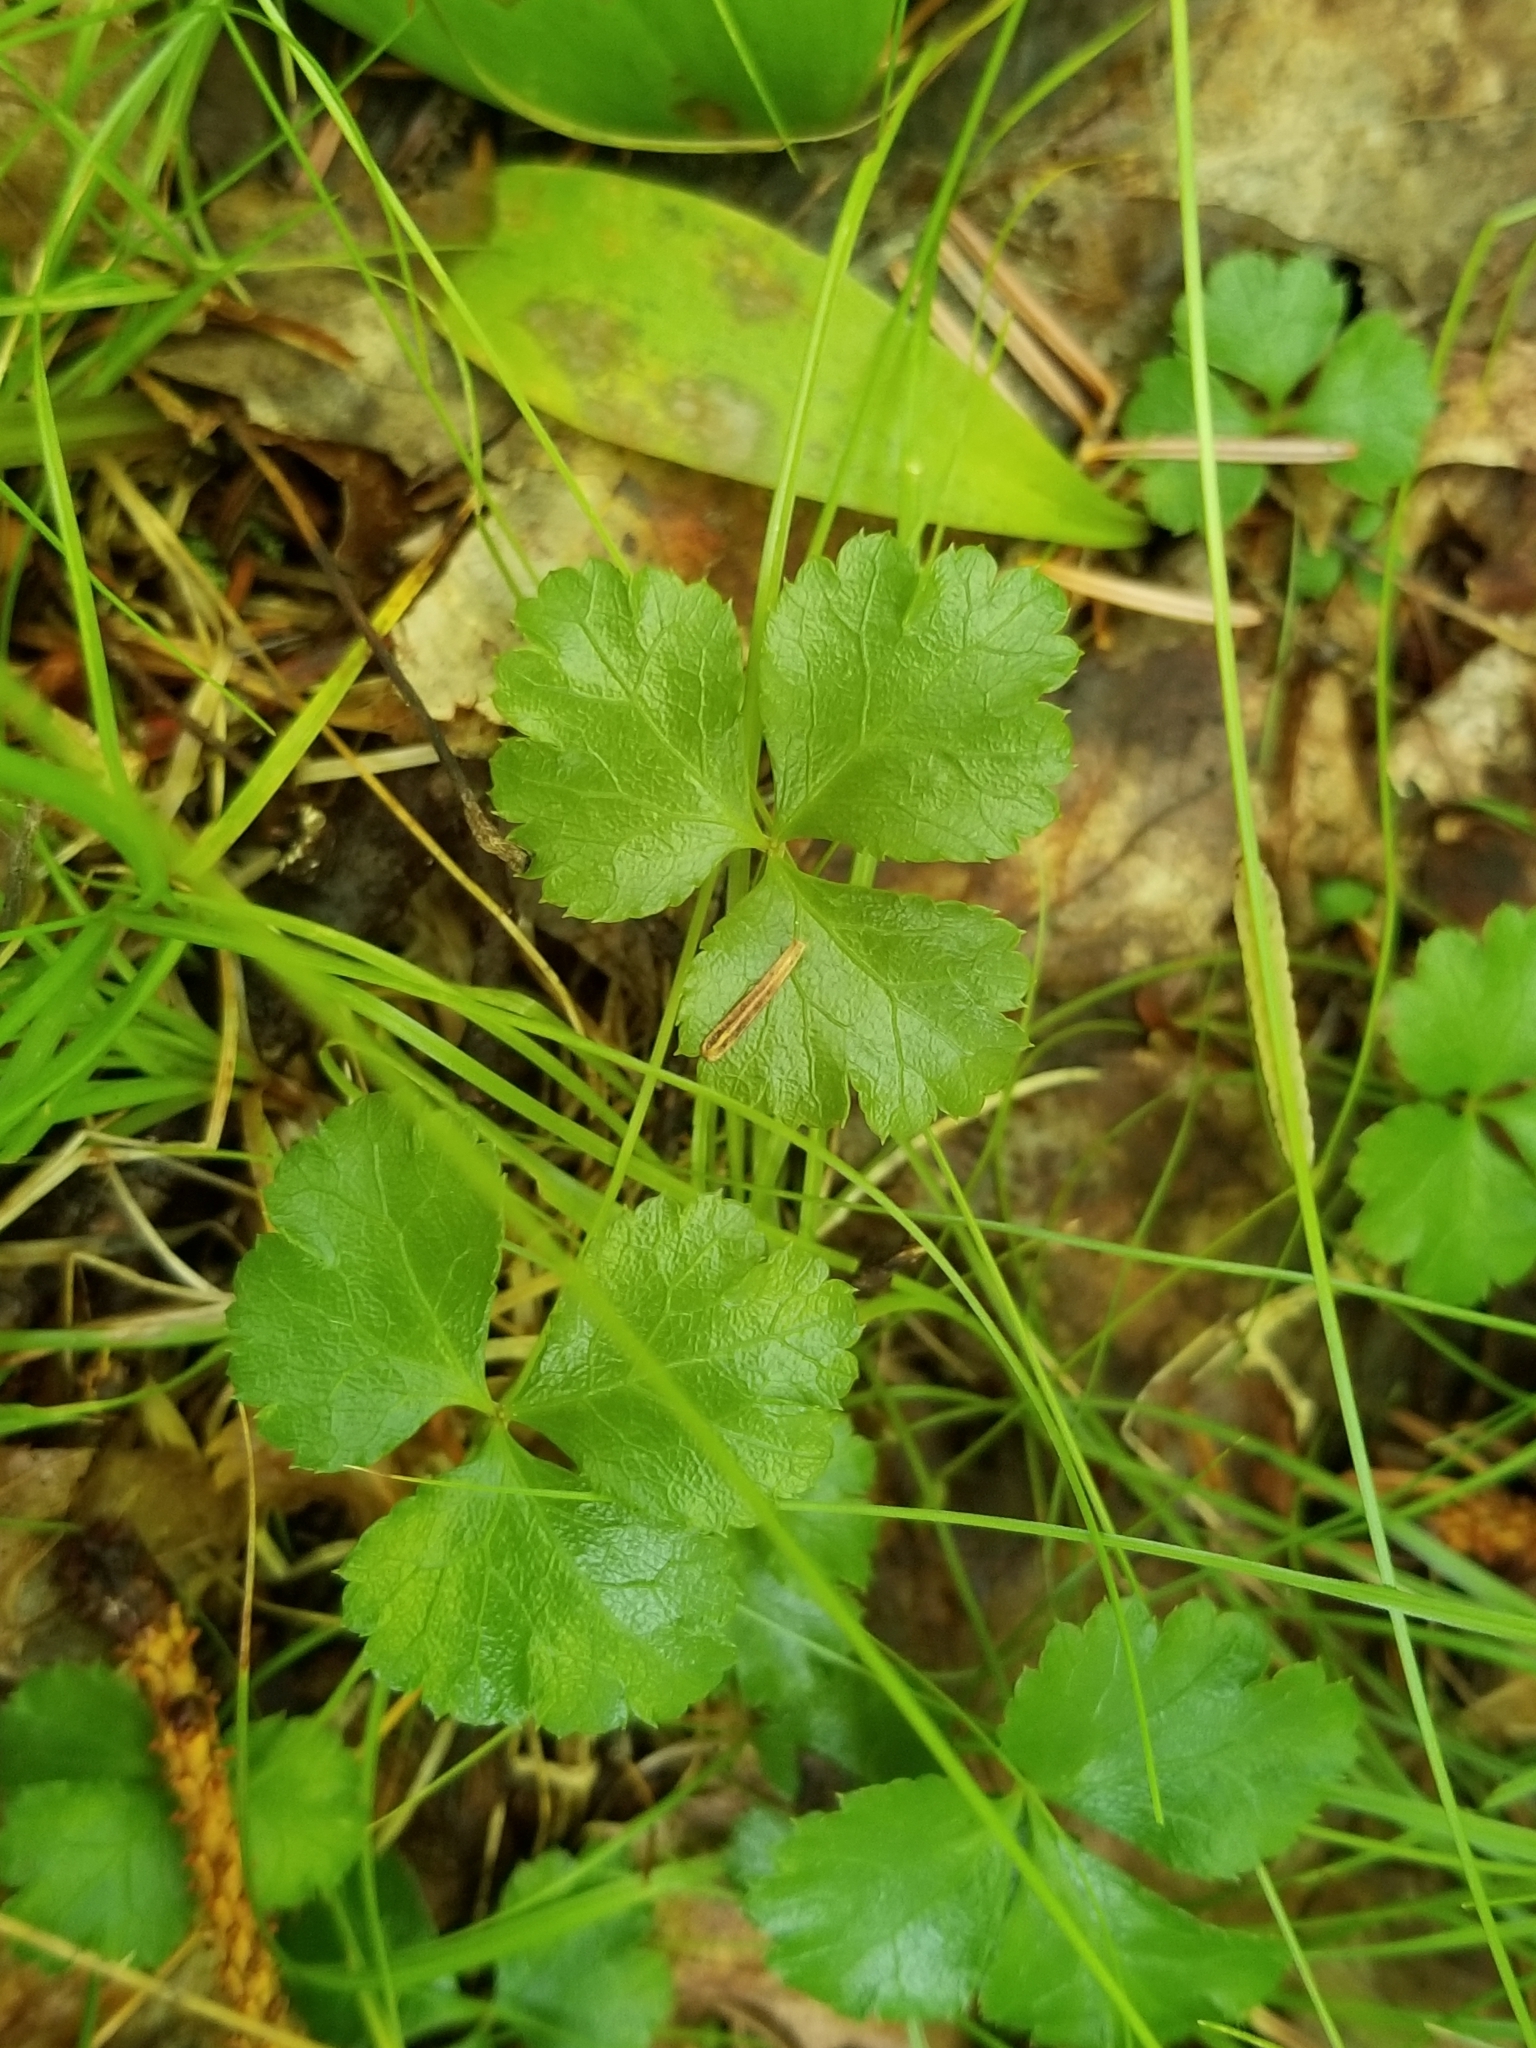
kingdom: Plantae
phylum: Tracheophyta
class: Magnoliopsida
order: Ranunculales
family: Ranunculaceae
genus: Coptis
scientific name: Coptis trifolia
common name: Canker-root
